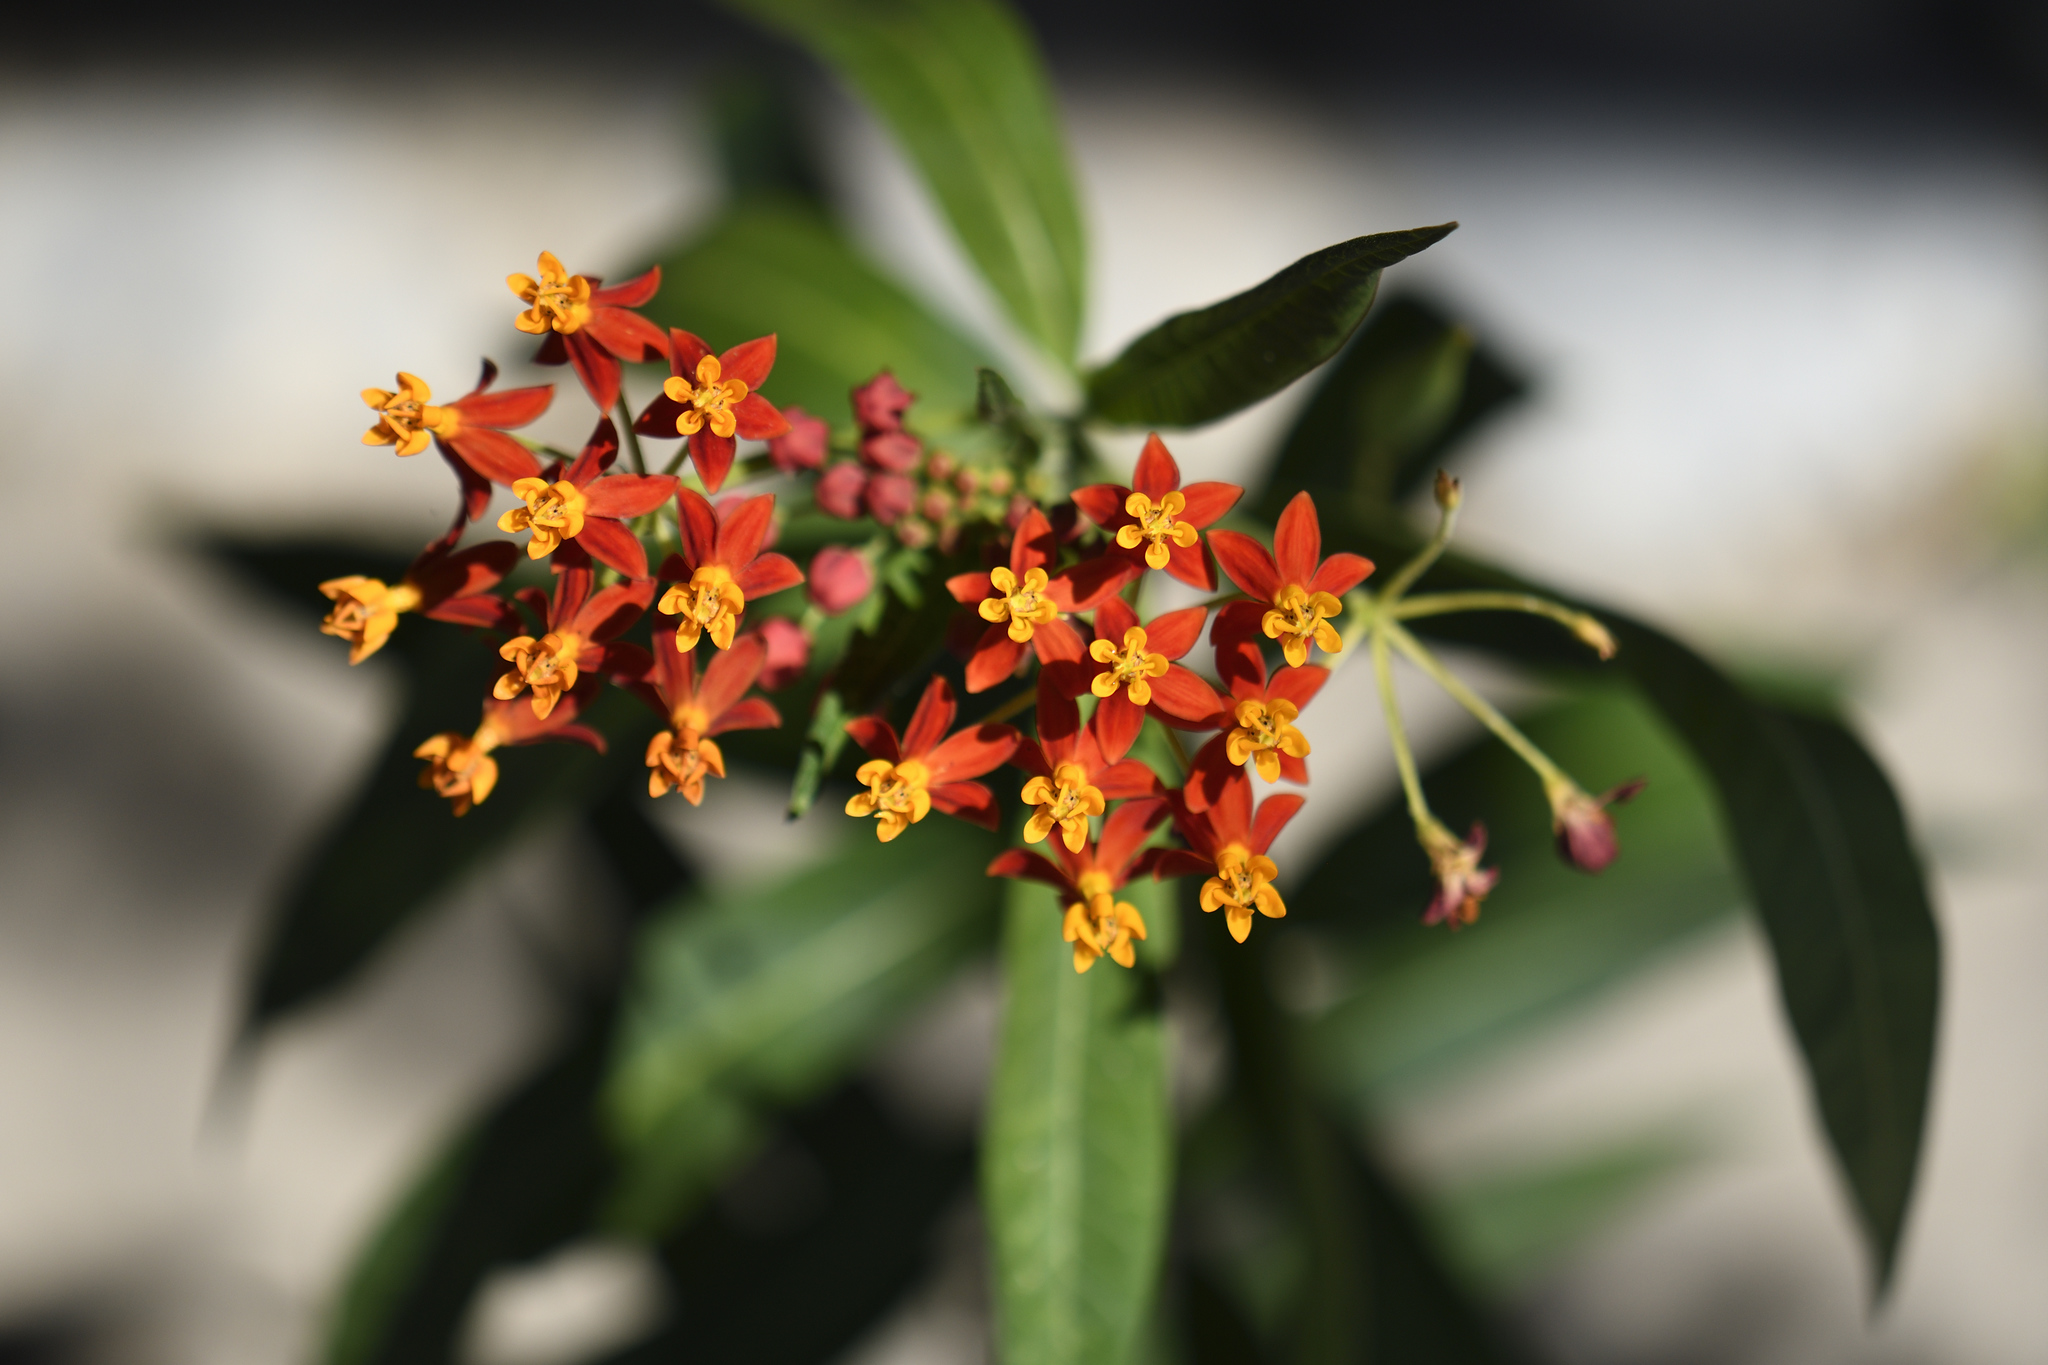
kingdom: Plantae
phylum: Tracheophyta
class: Magnoliopsida
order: Gentianales
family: Apocynaceae
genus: Asclepias
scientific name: Asclepias curassavica
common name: Bloodflower
